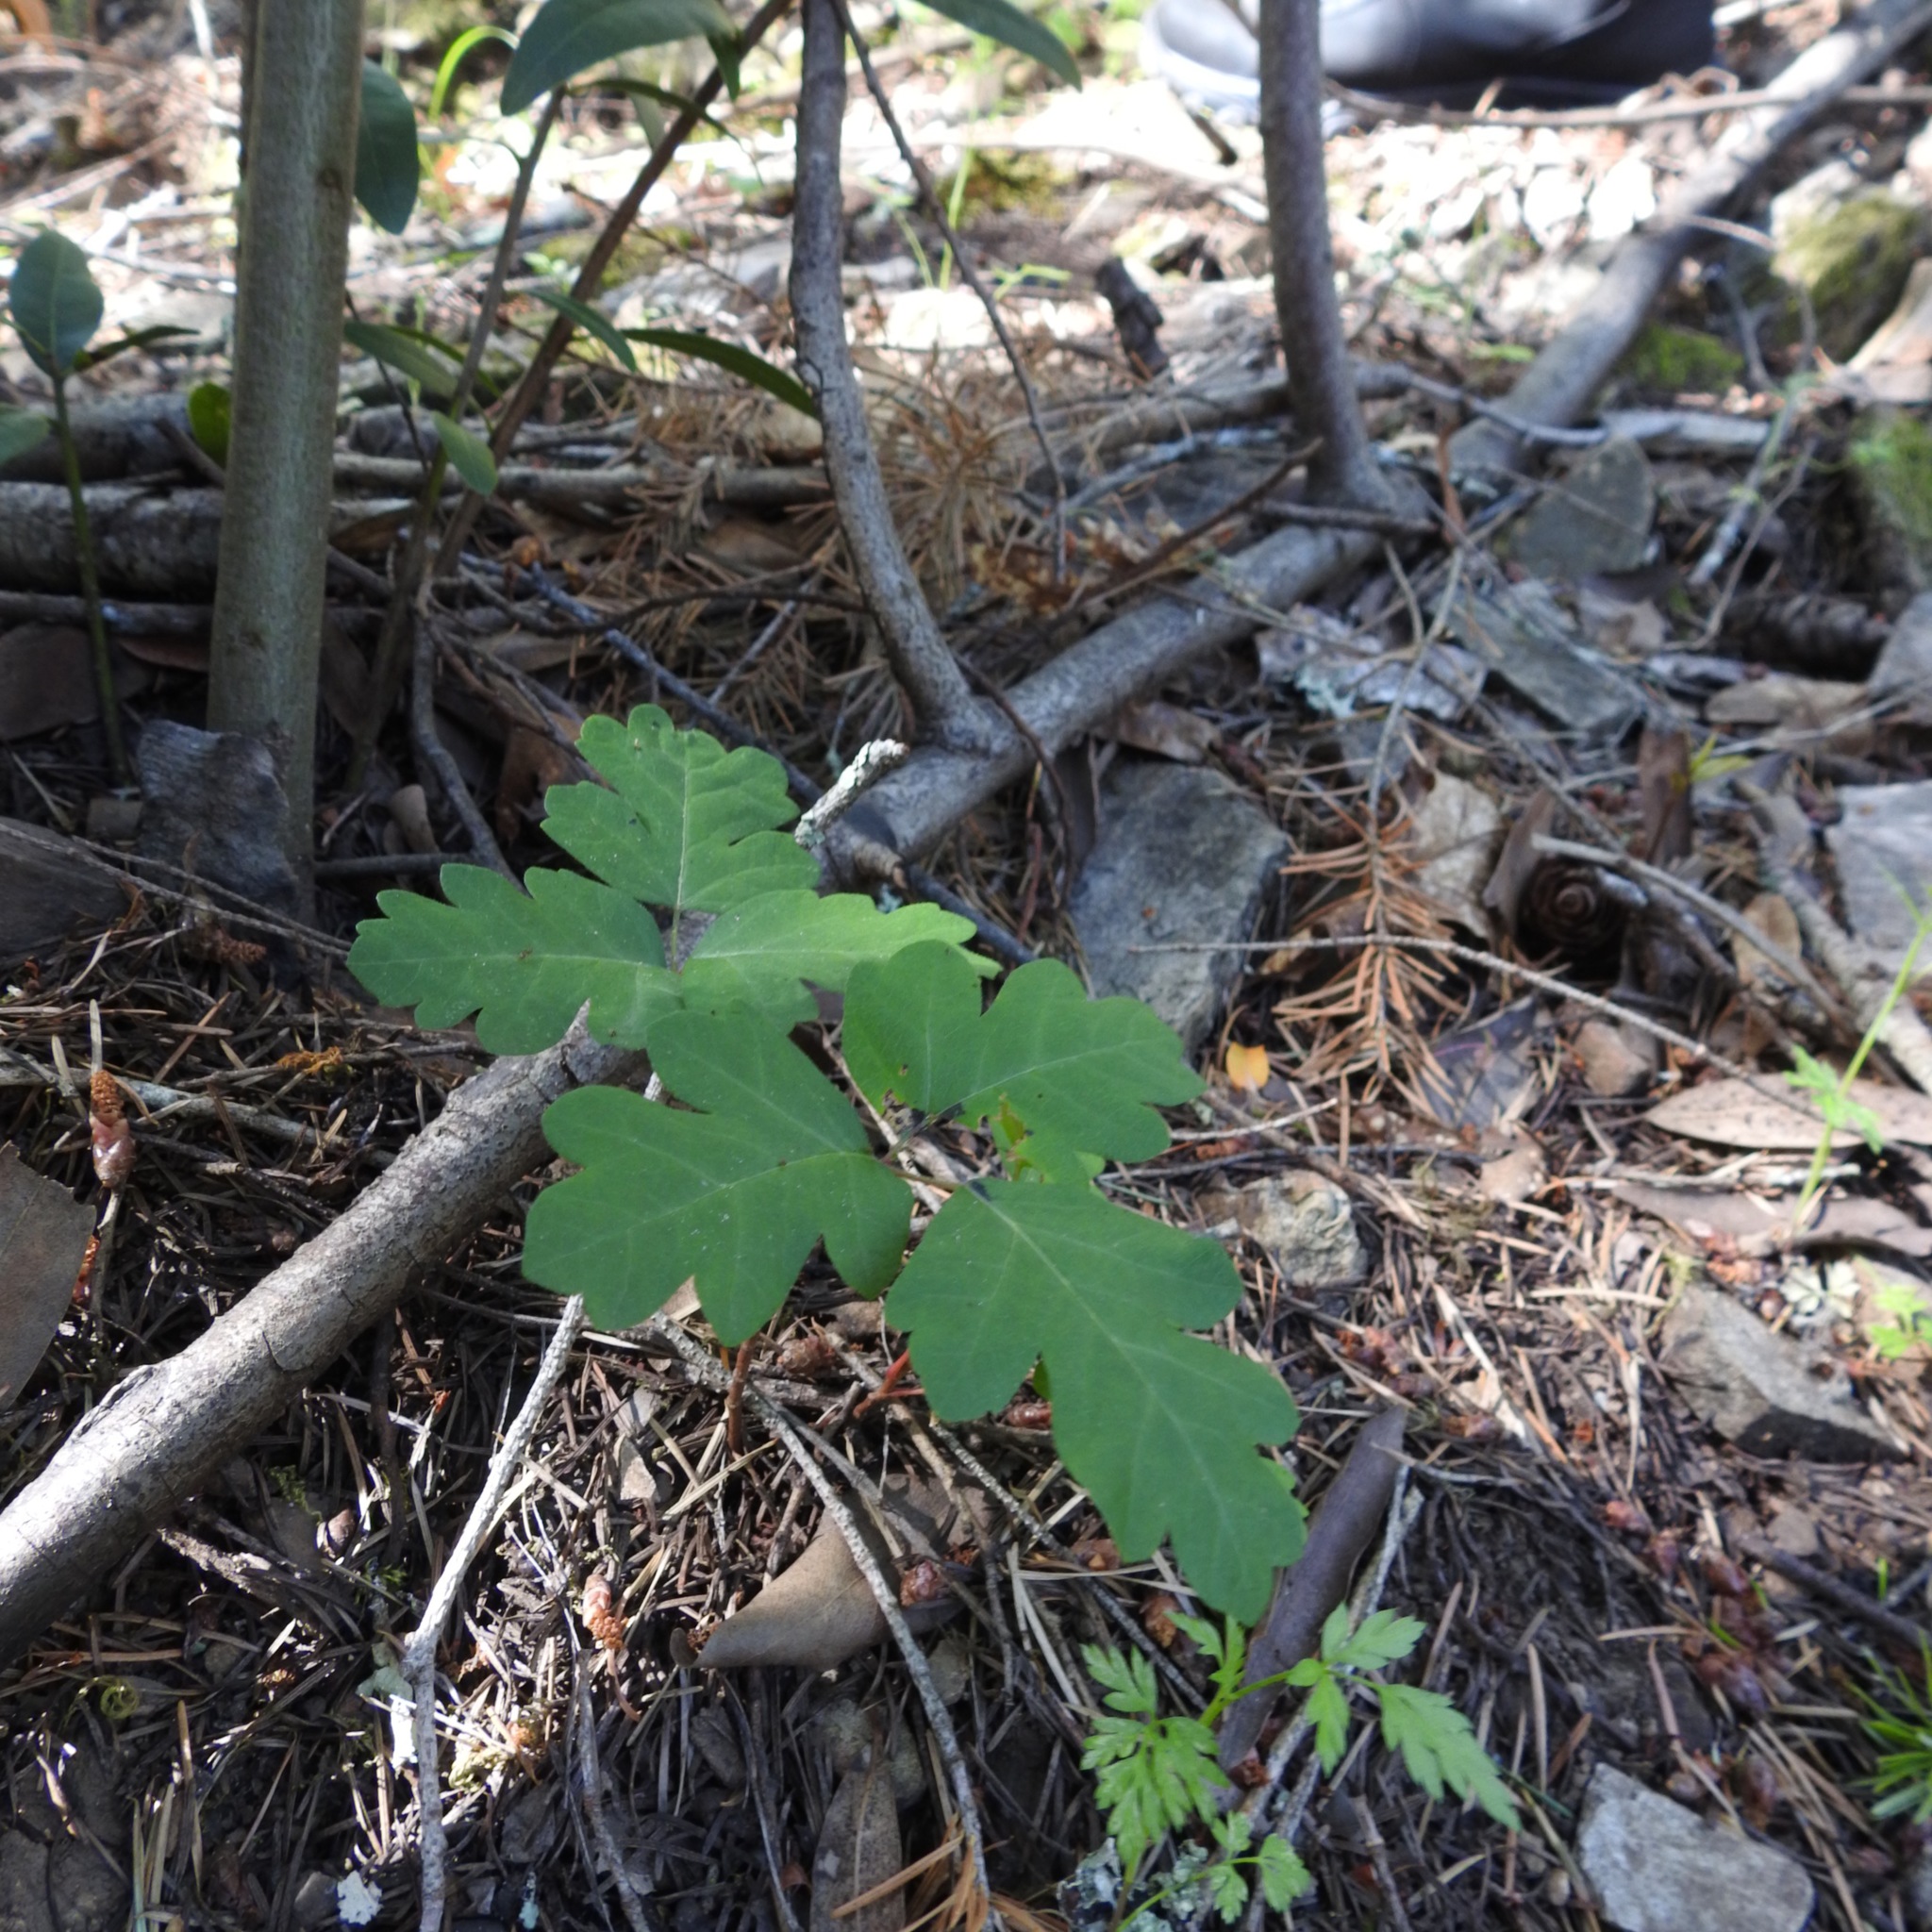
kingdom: Plantae
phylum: Tracheophyta
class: Magnoliopsida
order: Sapindales
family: Anacardiaceae
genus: Toxicodendron
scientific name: Toxicodendron diversilobum
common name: Pacific poison-oak
